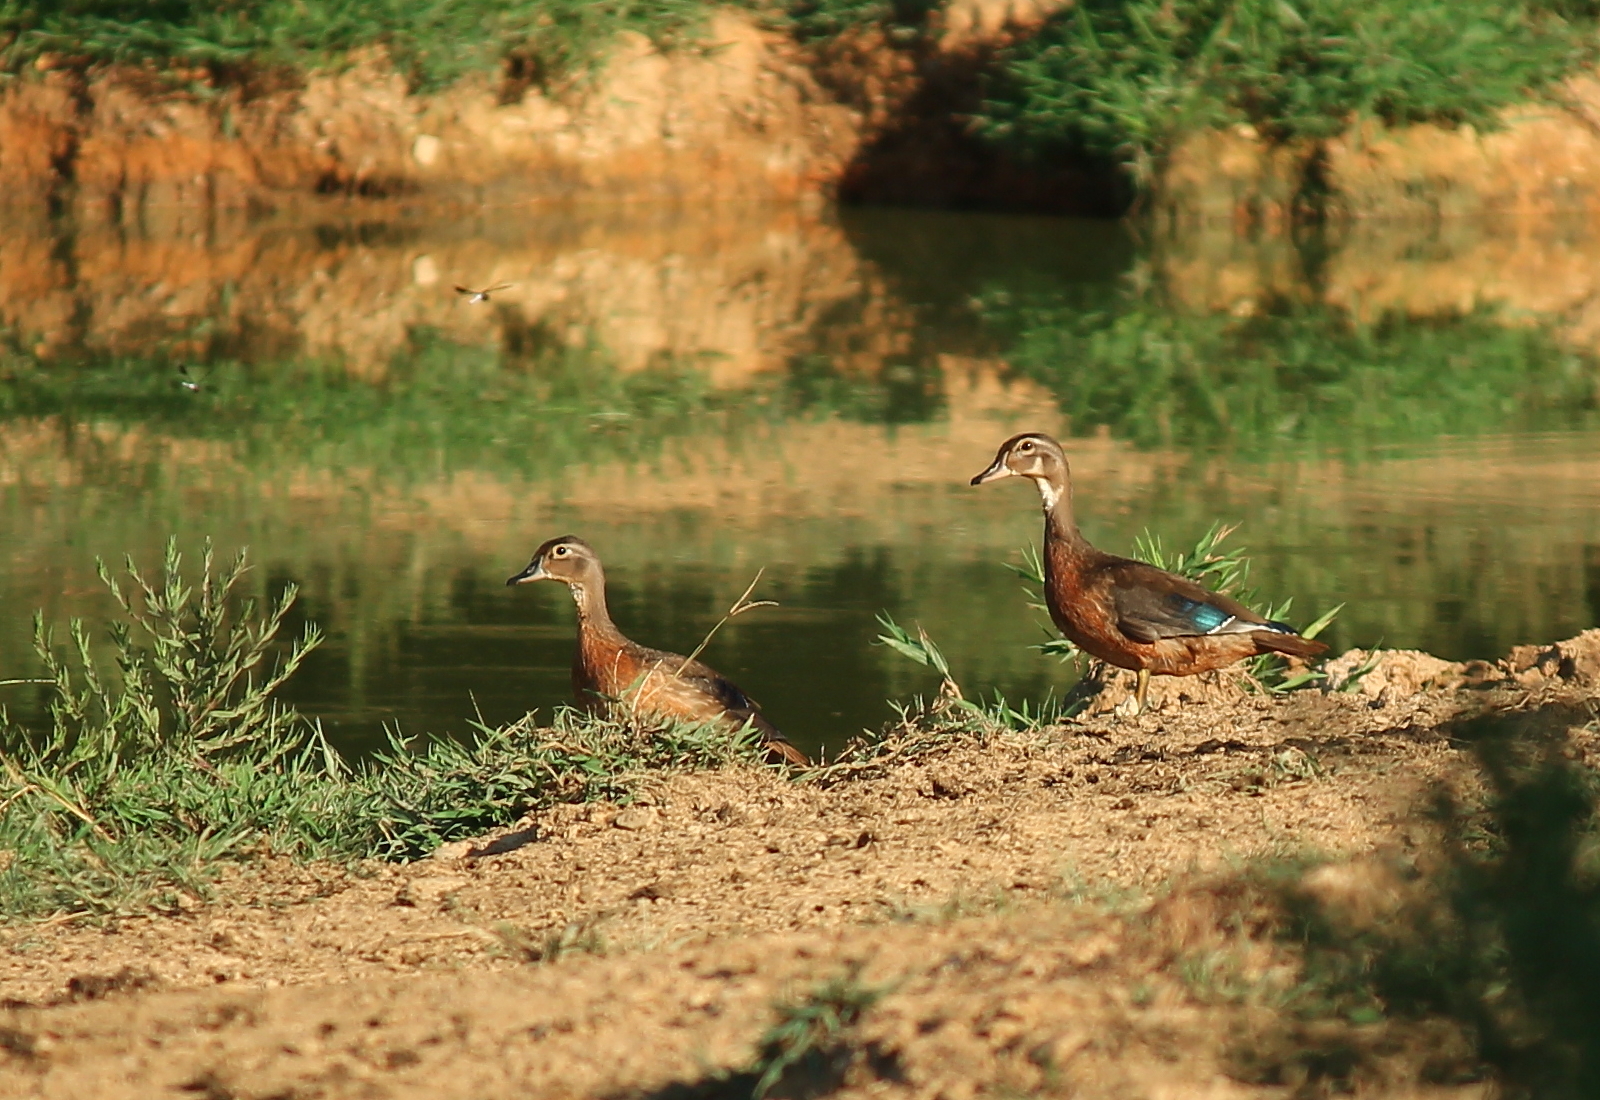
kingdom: Animalia
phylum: Chordata
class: Aves
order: Anseriformes
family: Anatidae
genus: Aix
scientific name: Aix sponsa
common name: Wood duck
